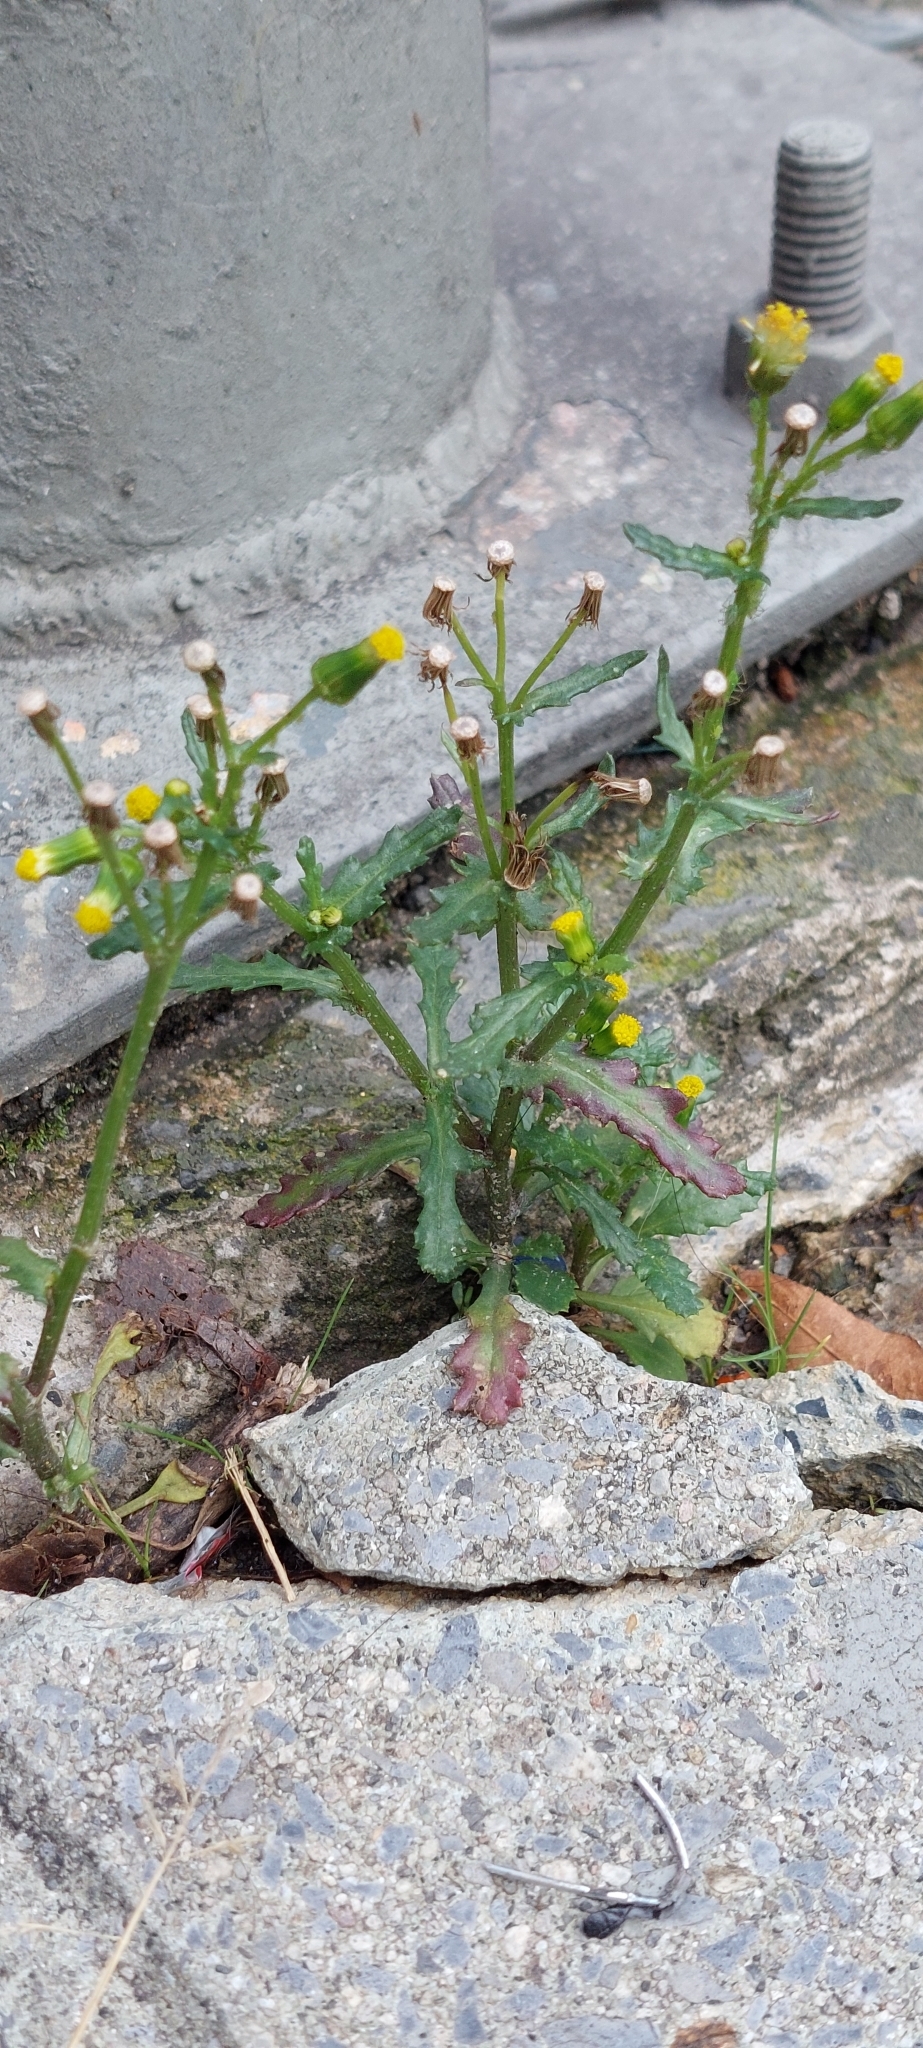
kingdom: Plantae
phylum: Tracheophyta
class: Magnoliopsida
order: Asterales
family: Asteraceae
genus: Senecio
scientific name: Senecio vulgaris
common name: Old-man-in-the-spring
